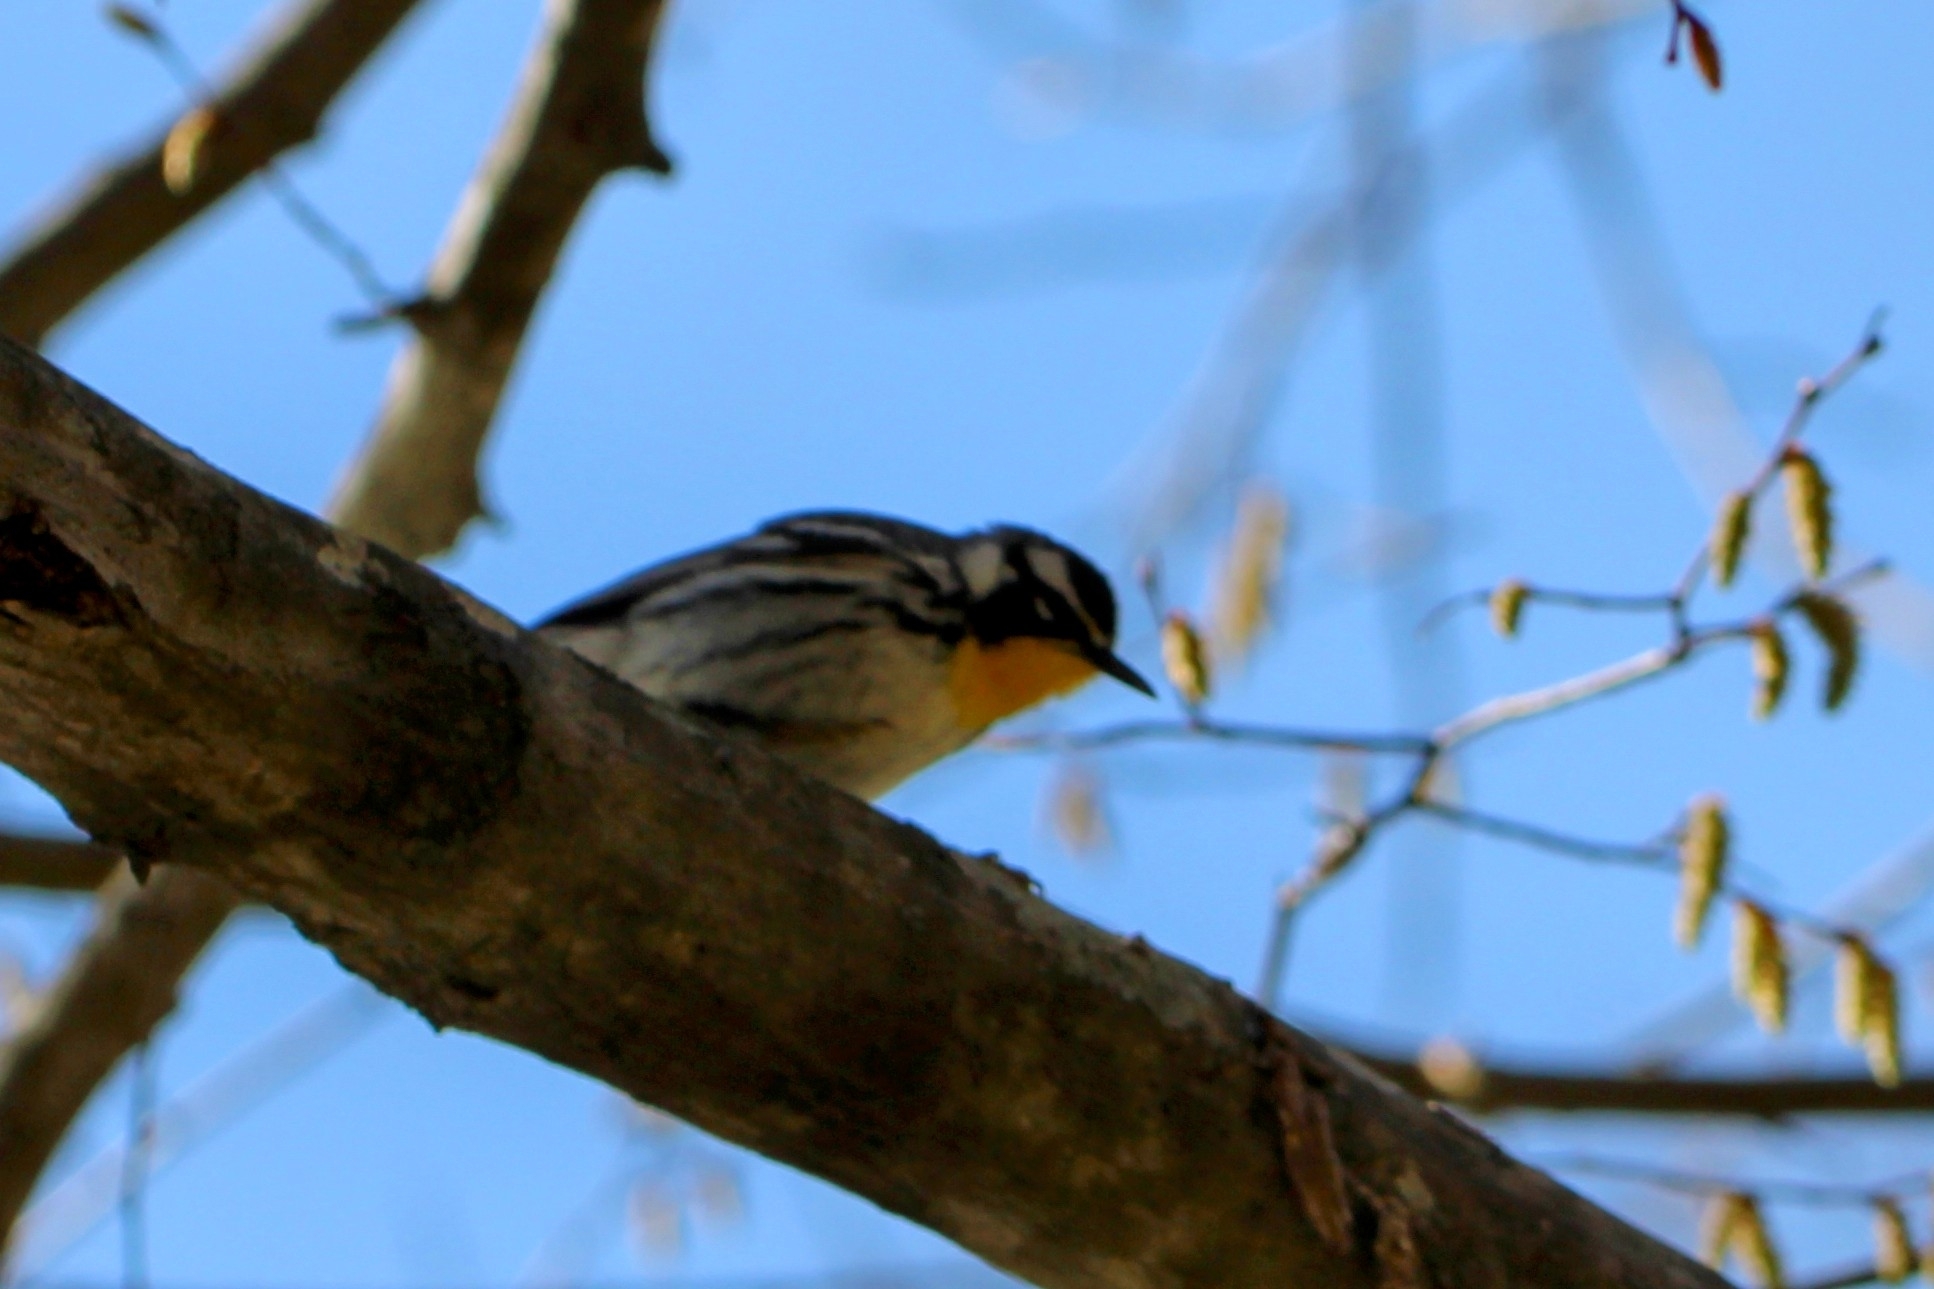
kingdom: Animalia
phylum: Chordata
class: Aves
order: Passeriformes
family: Parulidae
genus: Setophaga
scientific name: Setophaga dominica
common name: Yellow-throated warbler
